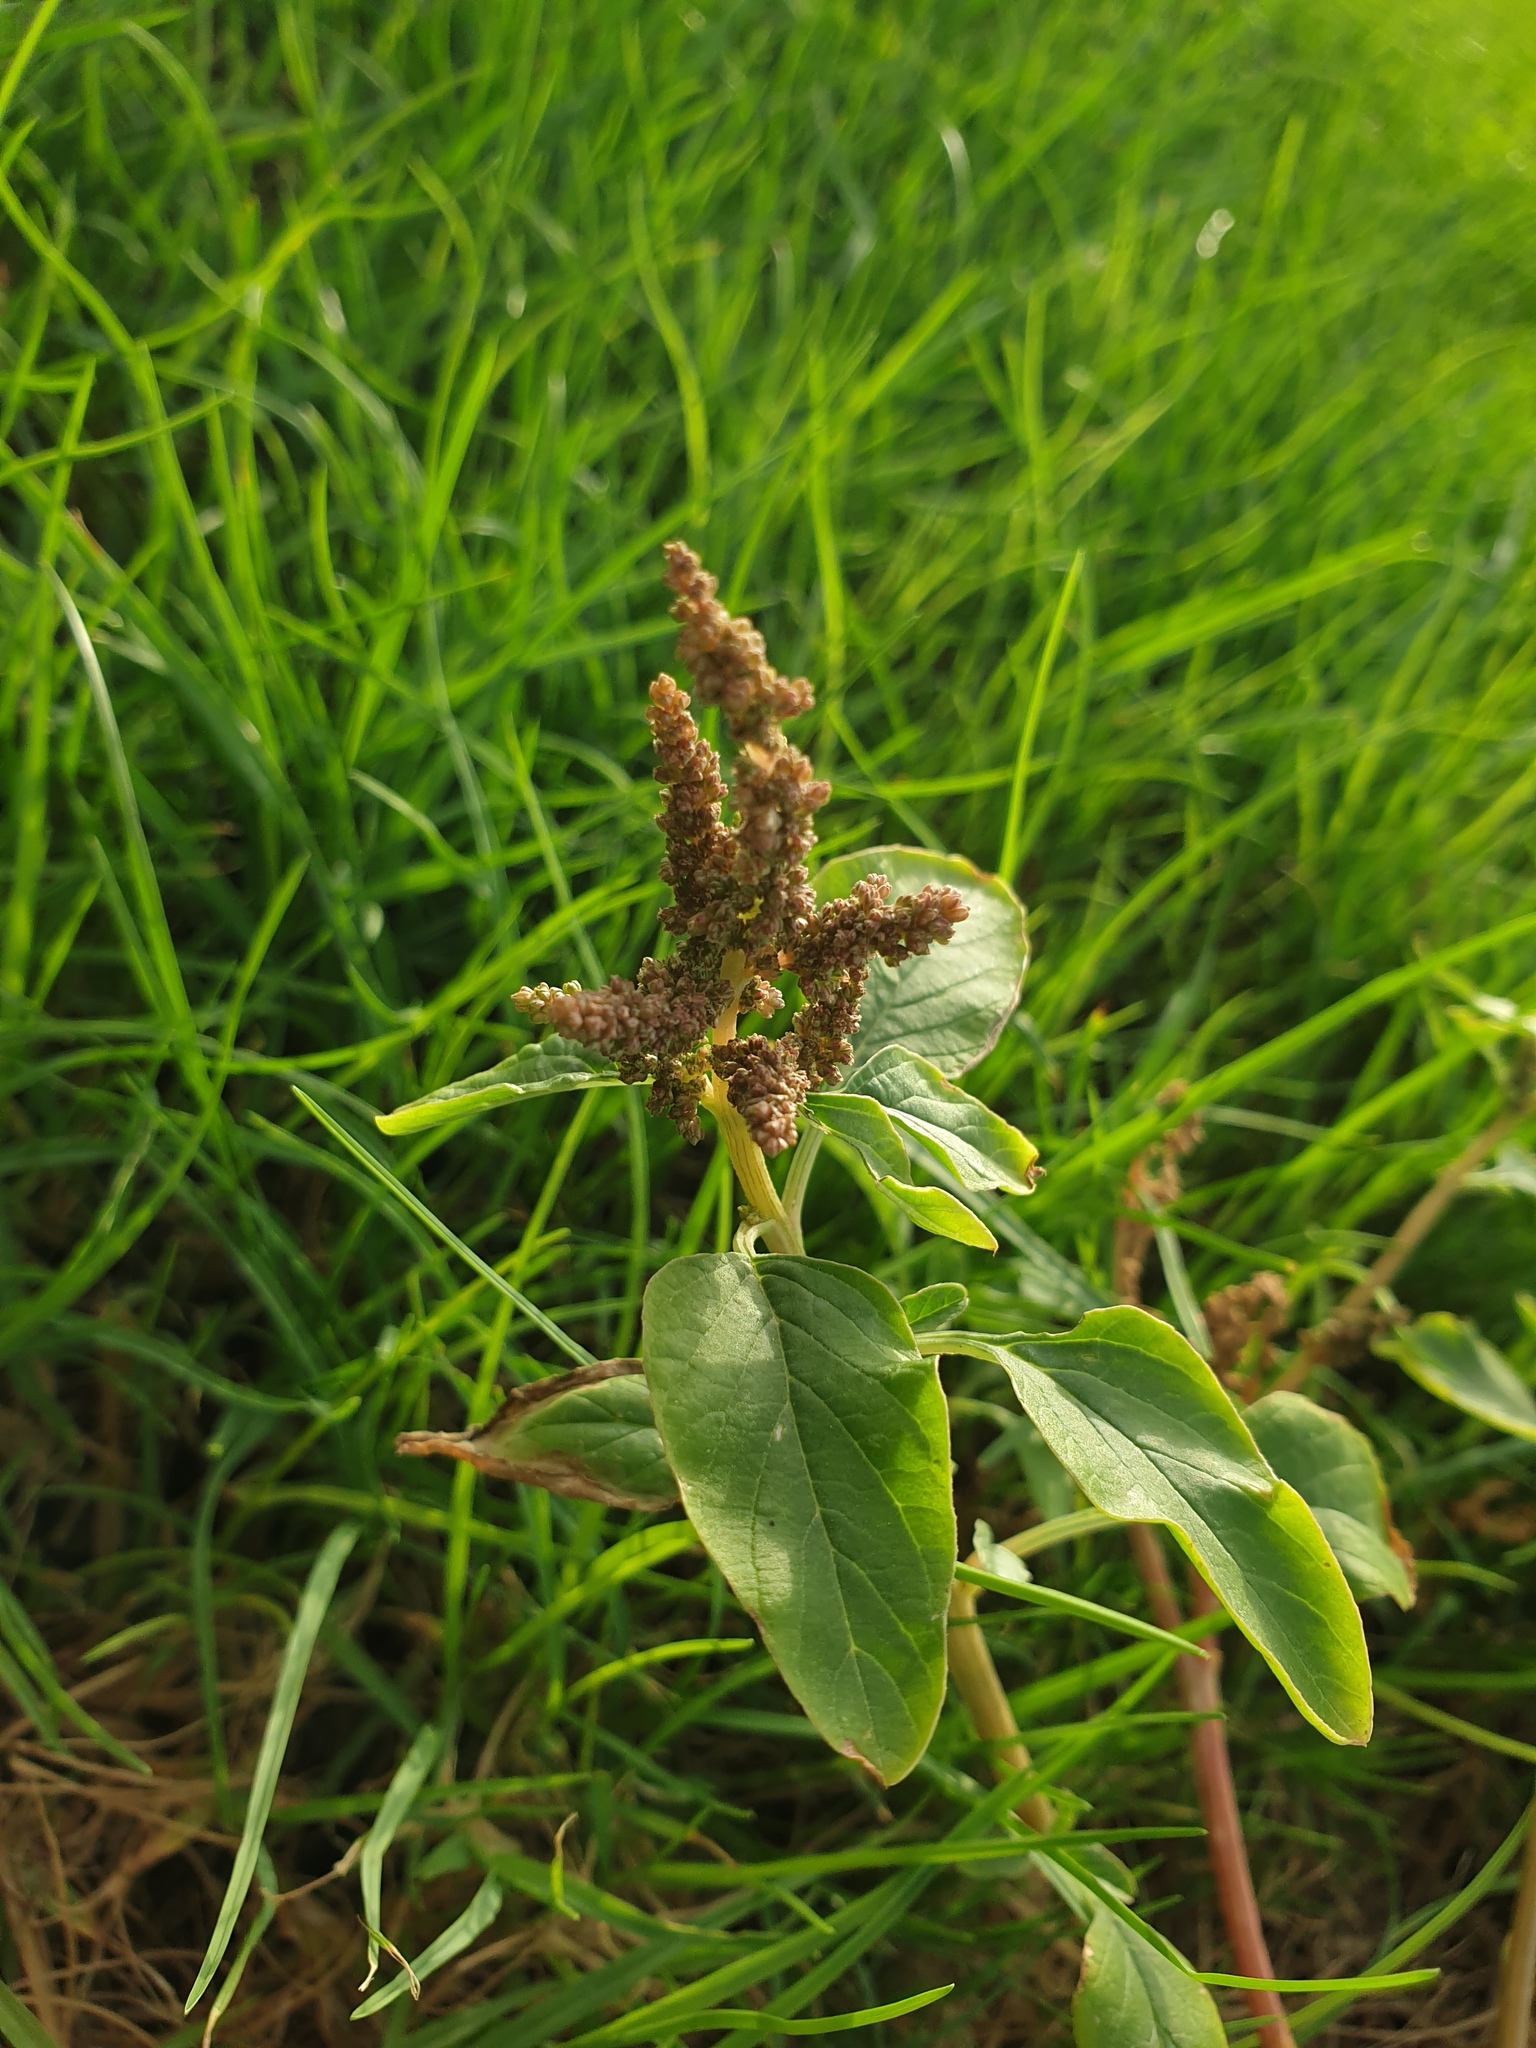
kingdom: Plantae
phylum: Tracheophyta
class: Magnoliopsida
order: Caryophyllales
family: Amaranthaceae
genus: Amaranthus
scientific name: Amaranthus viridis
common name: Slender amaranth
